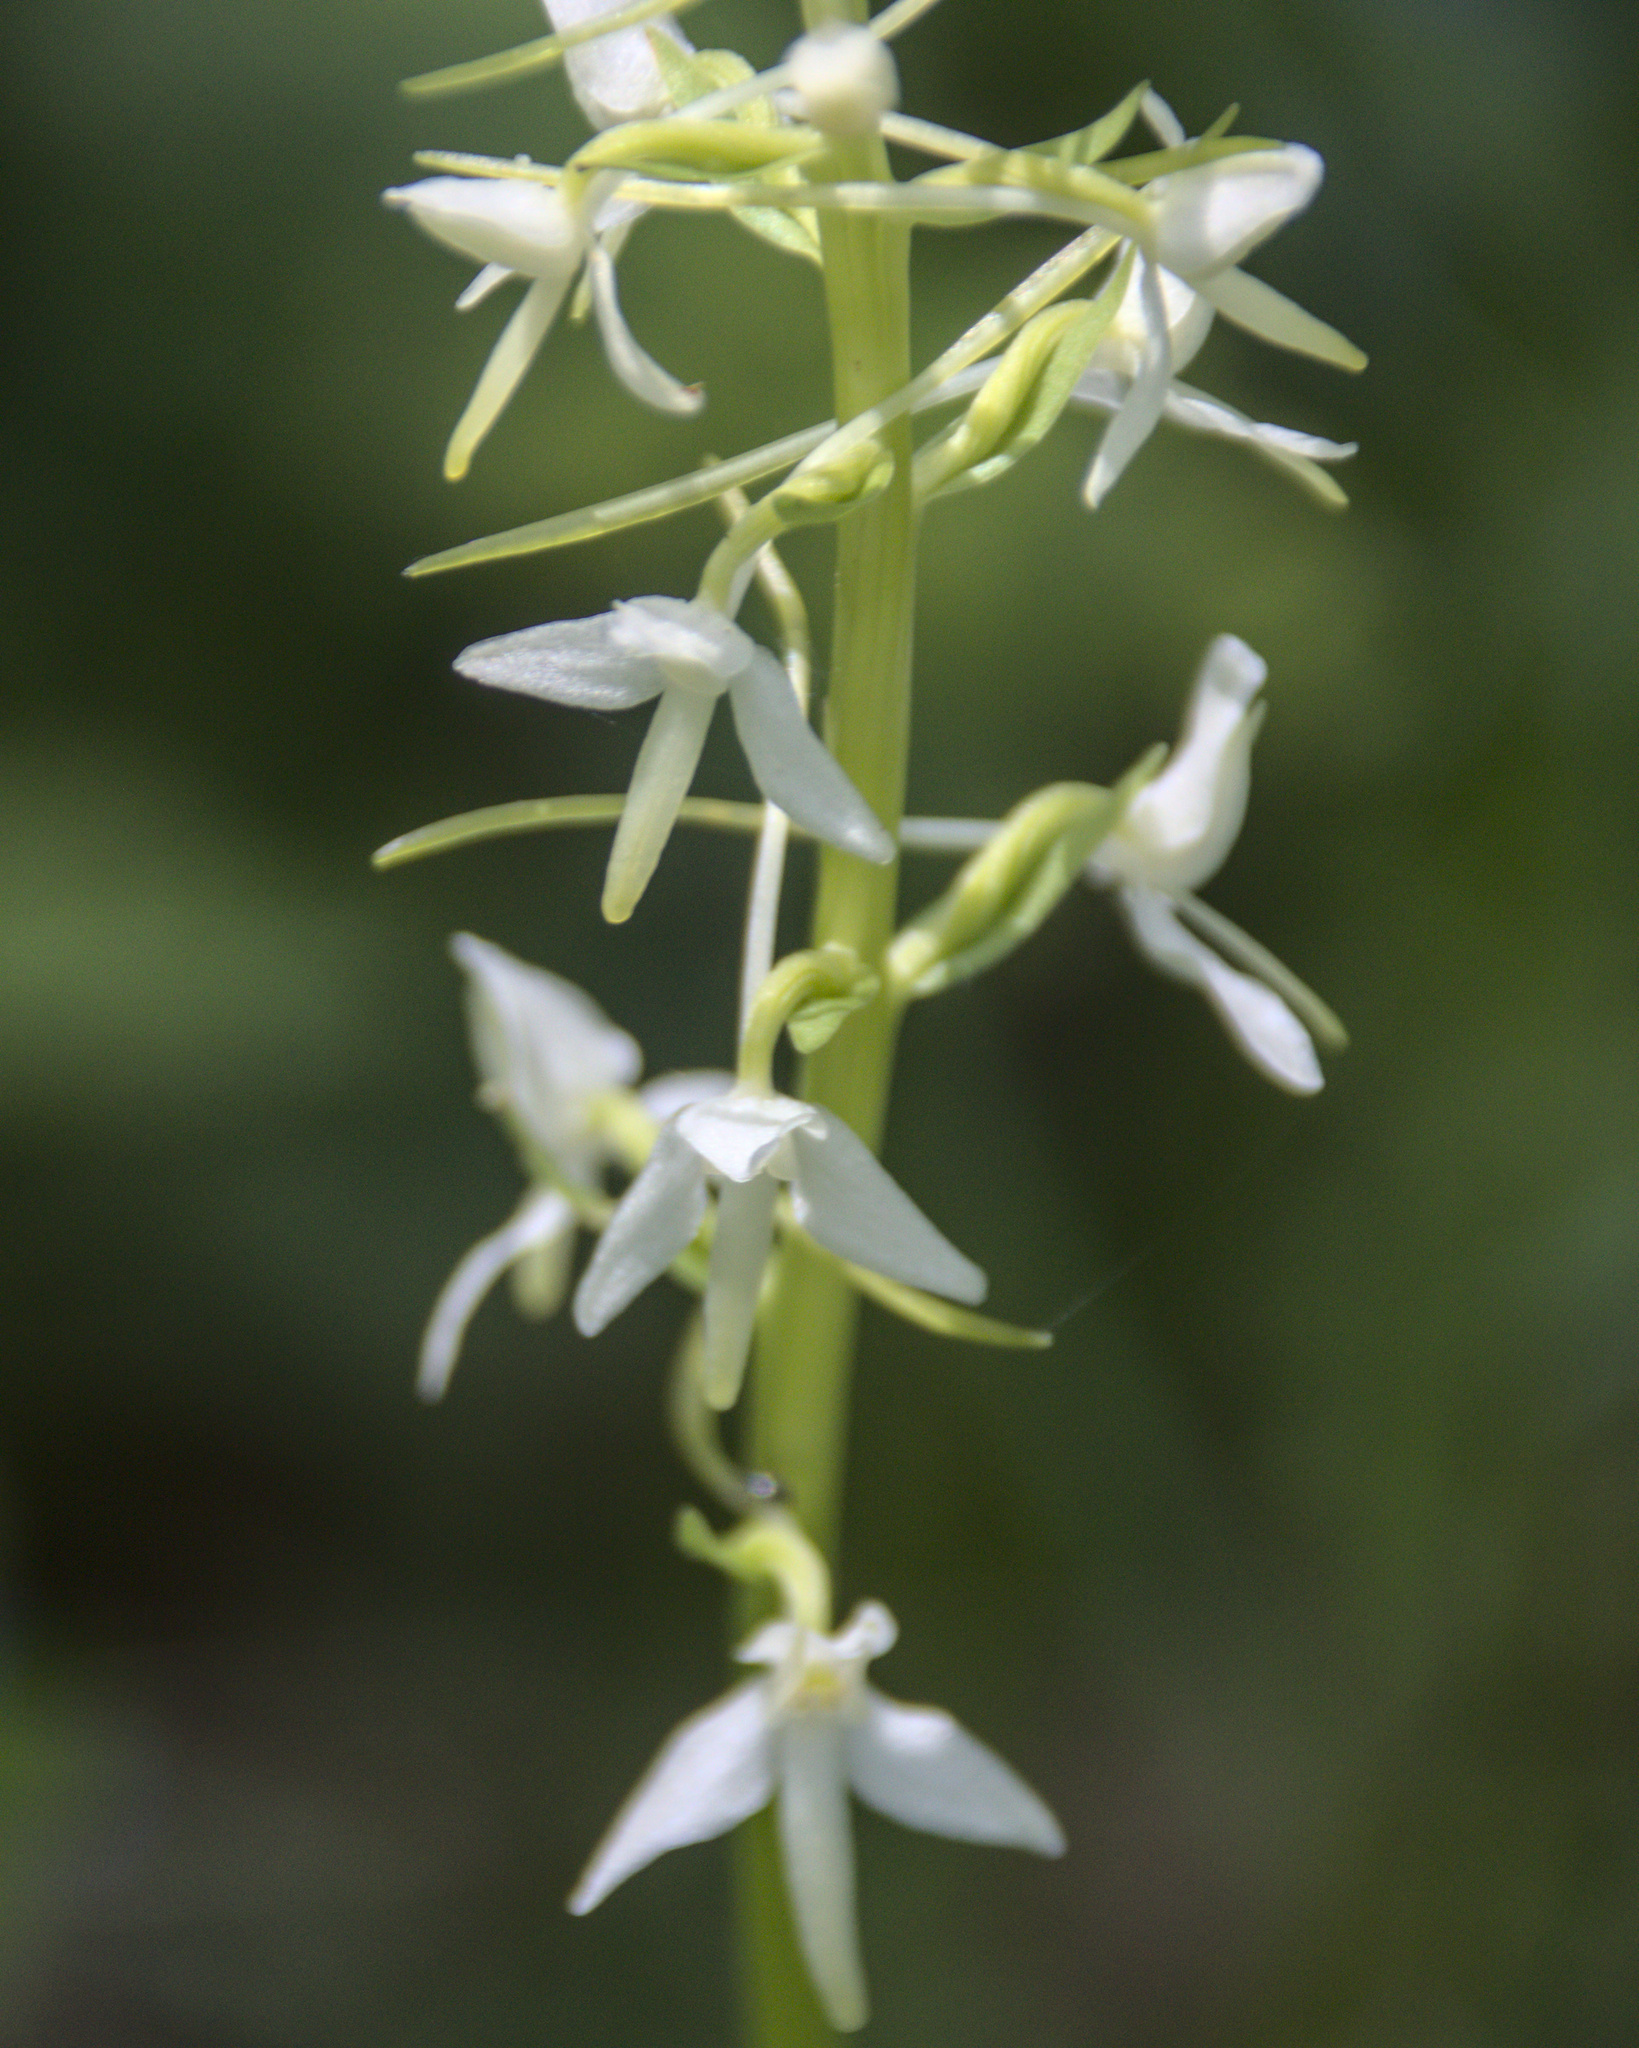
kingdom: Plantae
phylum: Tracheophyta
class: Liliopsida
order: Asparagales
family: Orchidaceae
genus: Platanthera
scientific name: Platanthera bifolia
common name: Lesser butterfly-orchid
